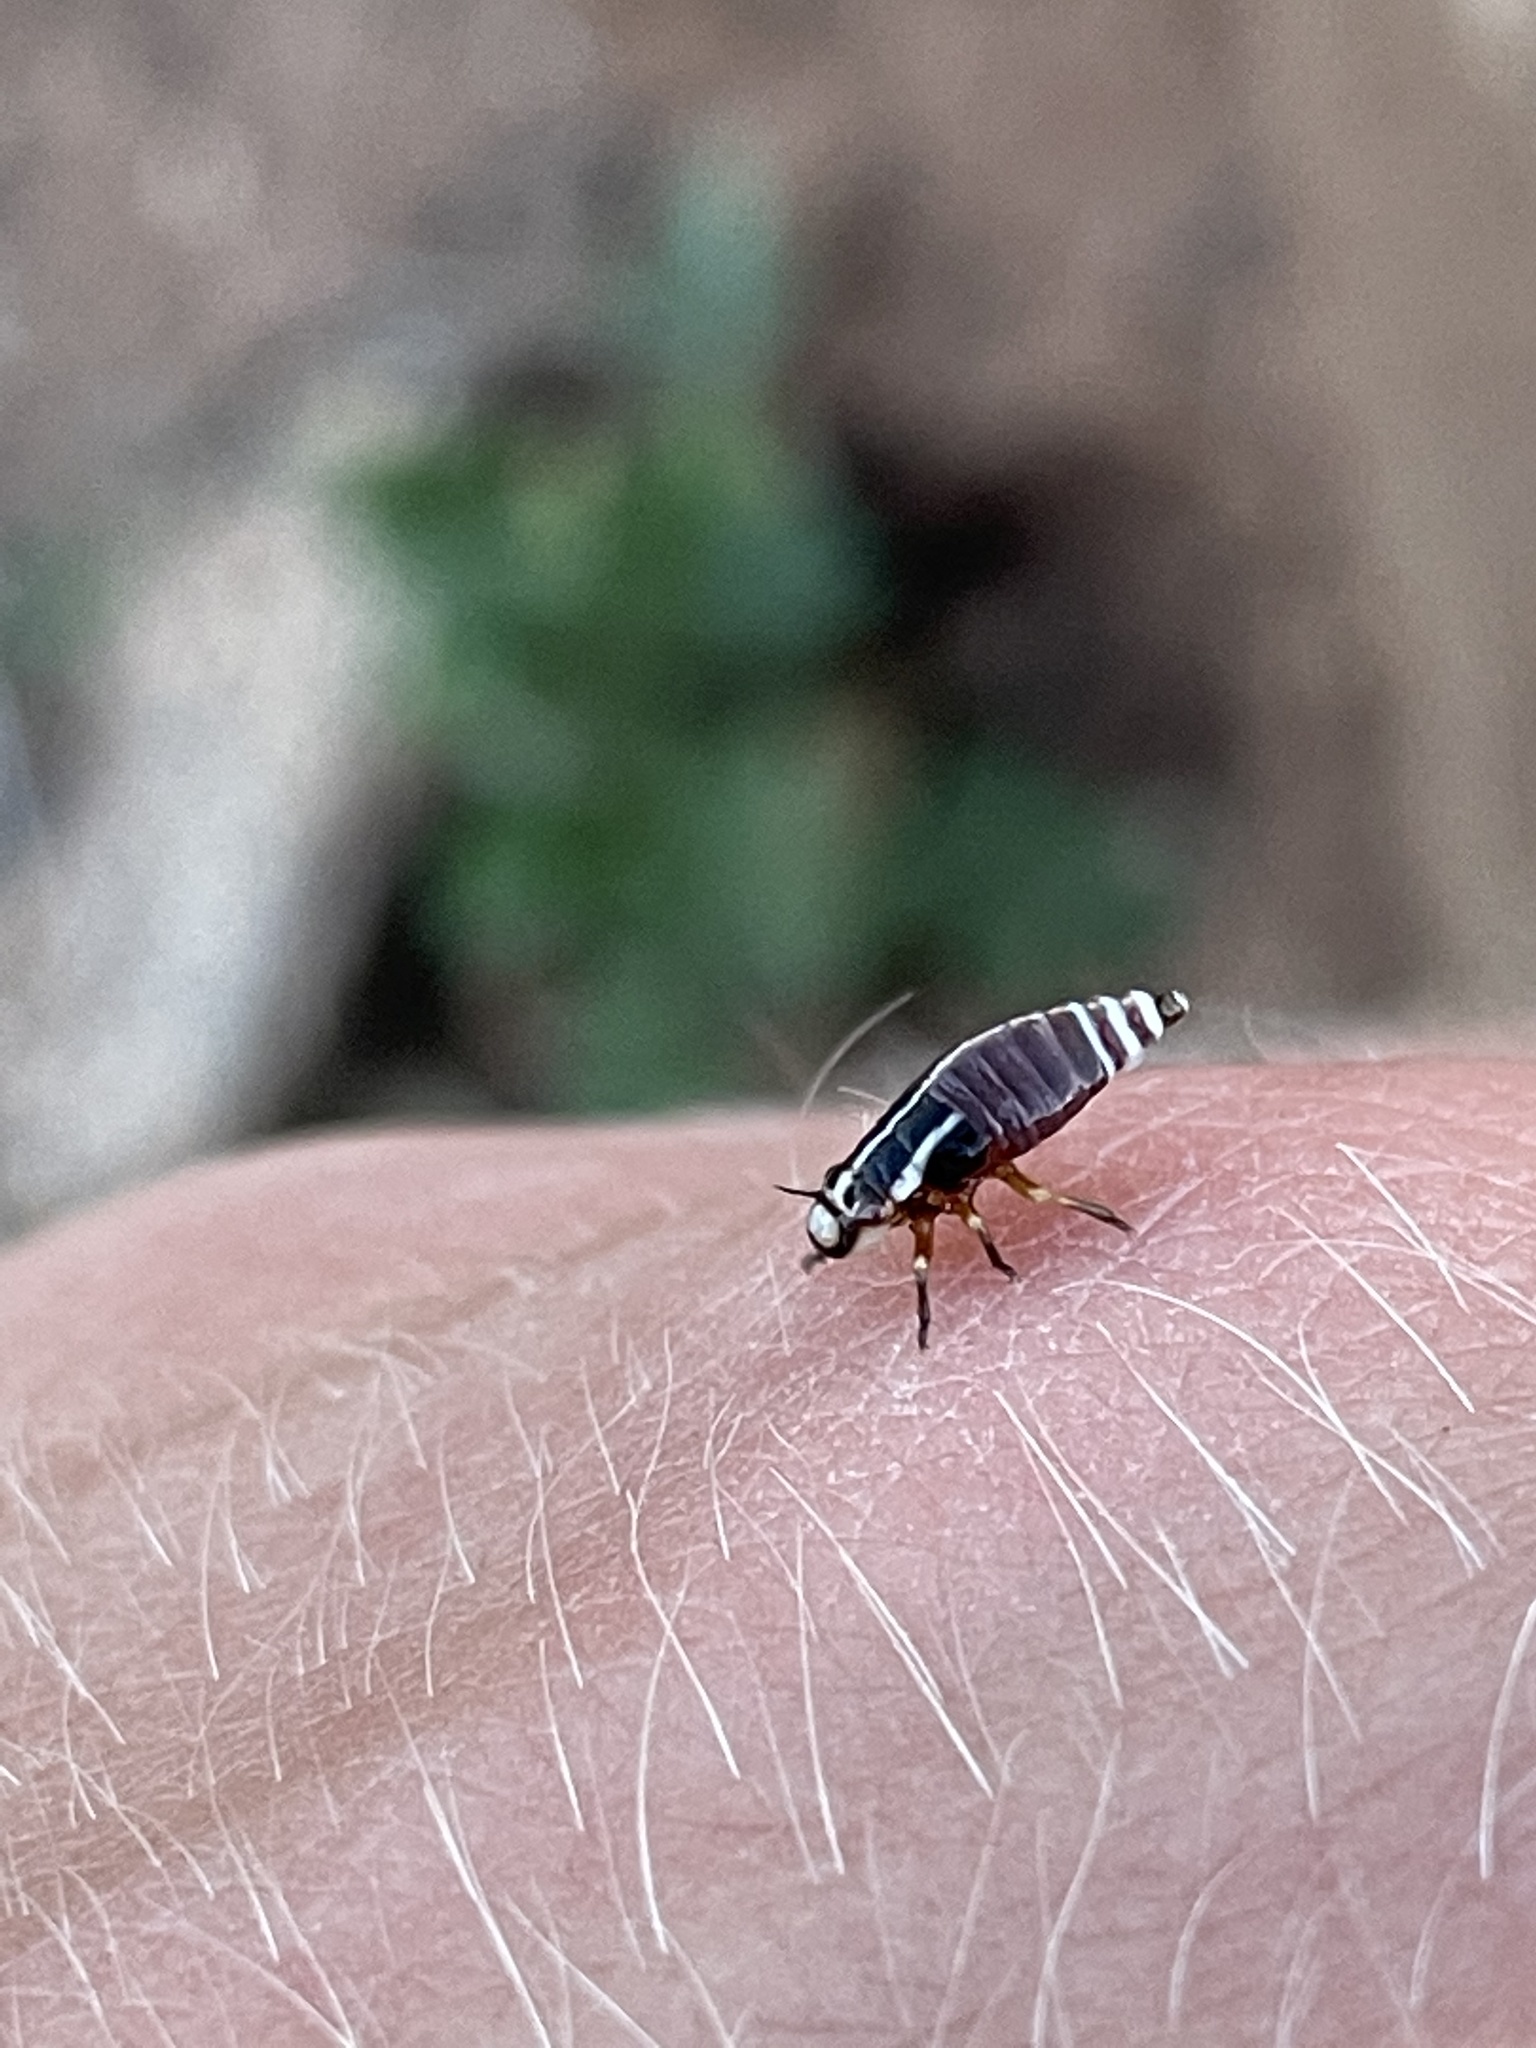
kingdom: Animalia
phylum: Arthropoda
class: Insecta
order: Hemiptera
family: Aphrophoridae
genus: Lepyronia
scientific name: Lepyronia gibbosa
